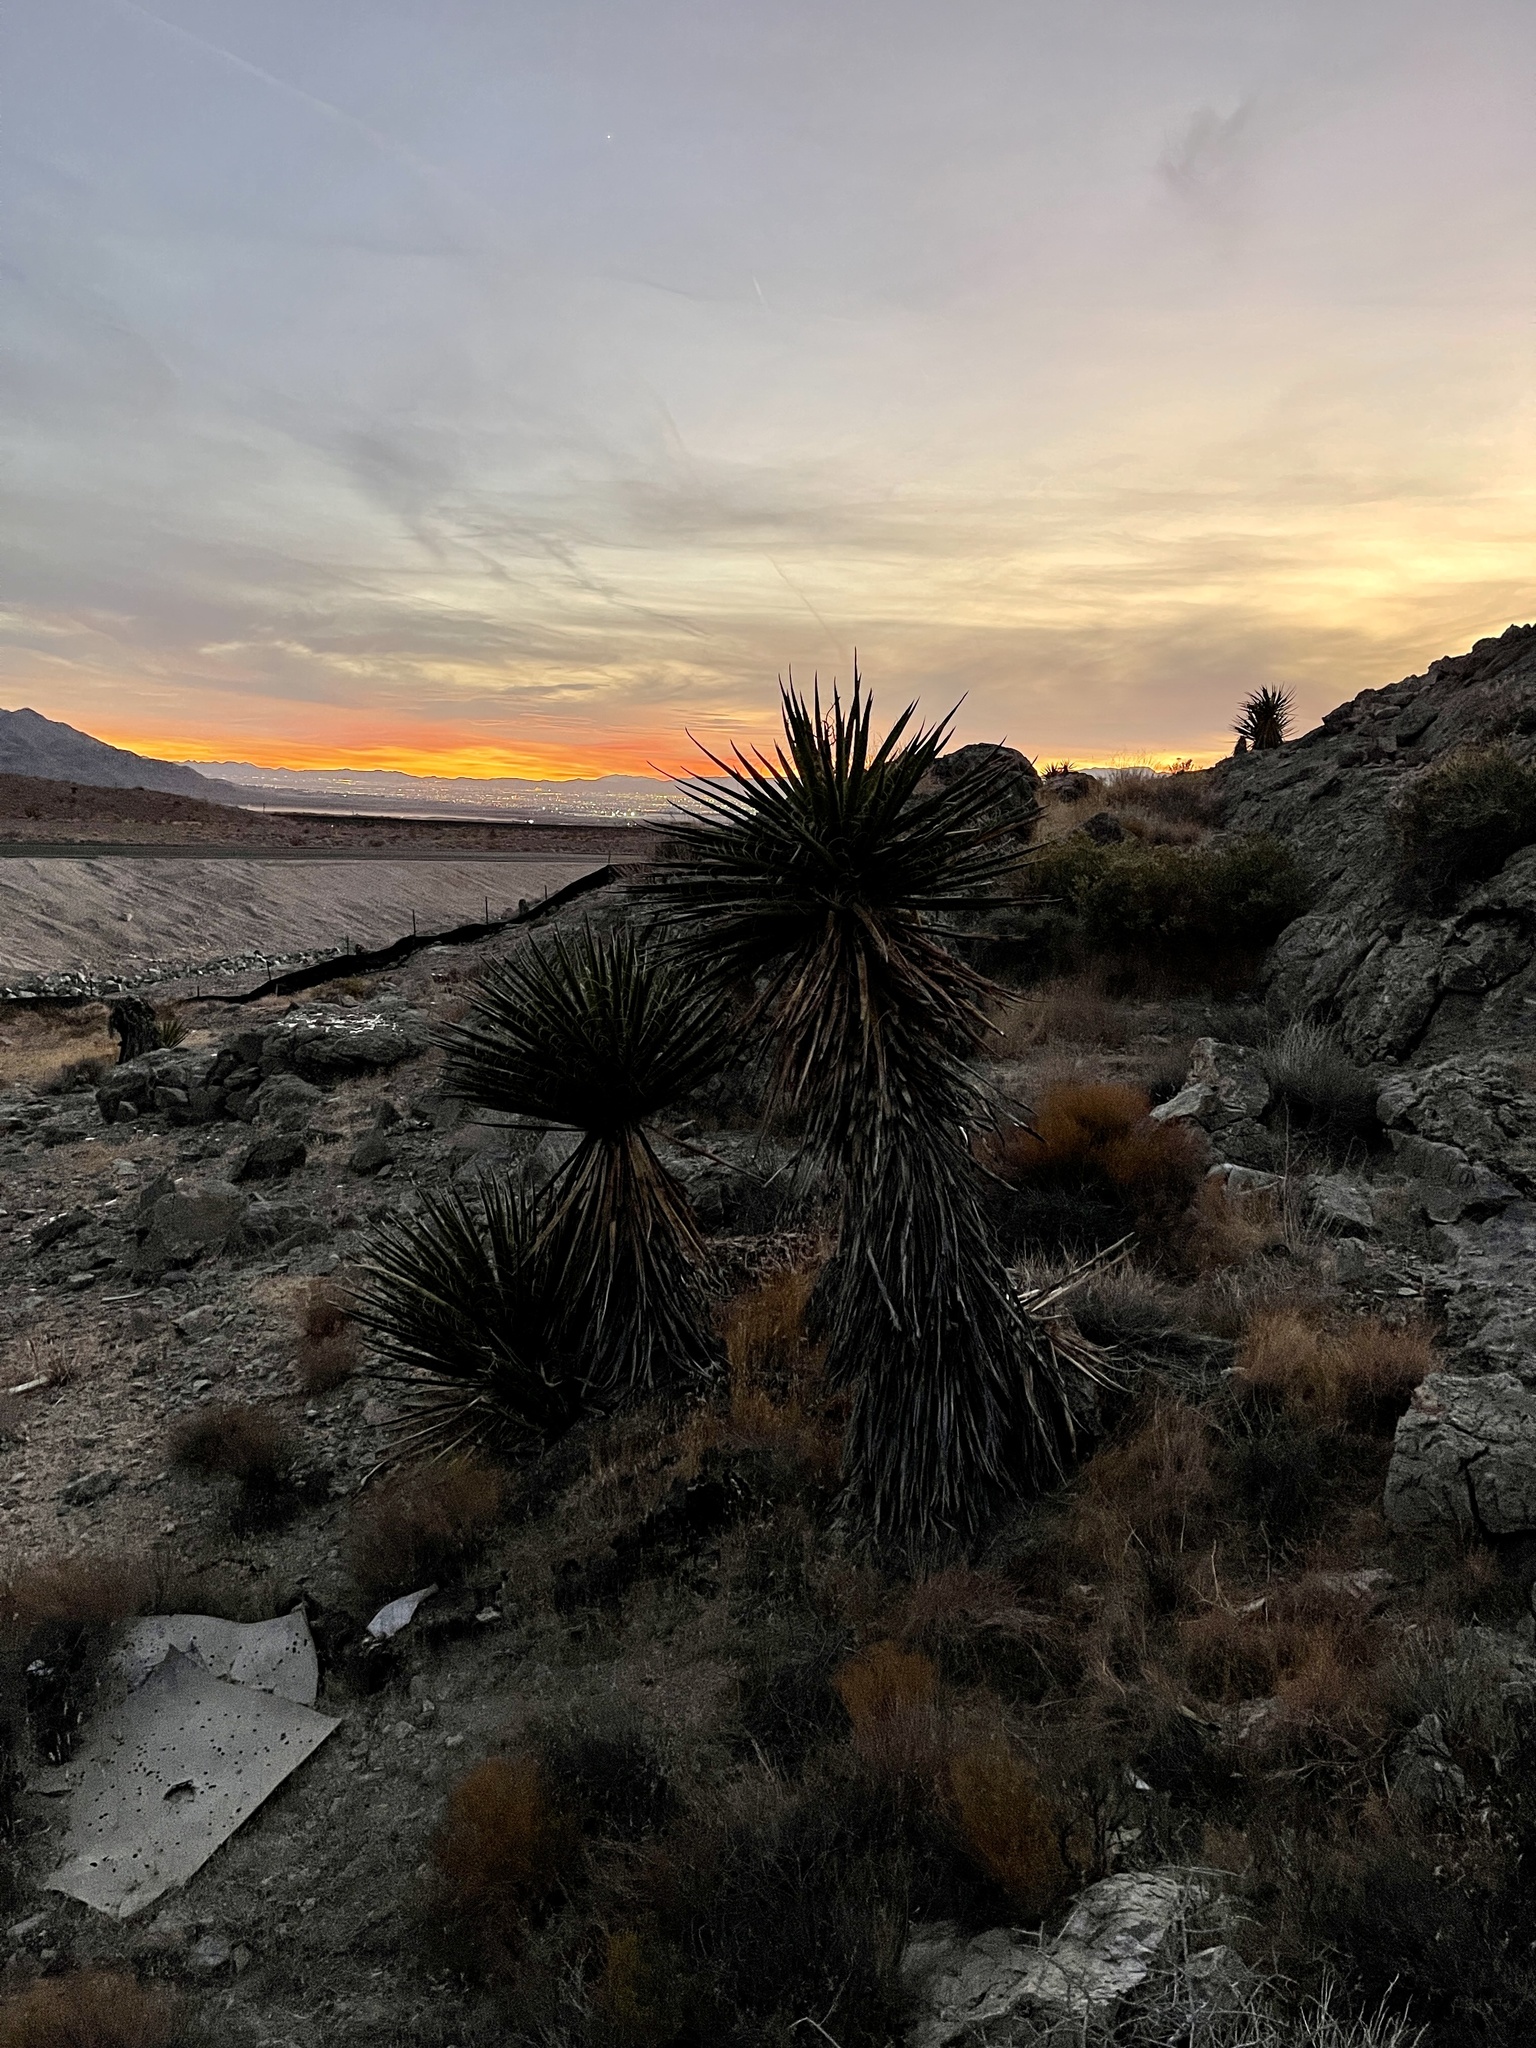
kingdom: Plantae
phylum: Tracheophyta
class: Liliopsida
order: Asparagales
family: Asparagaceae
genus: Yucca
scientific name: Yucca schidigera
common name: Mojave yucca
